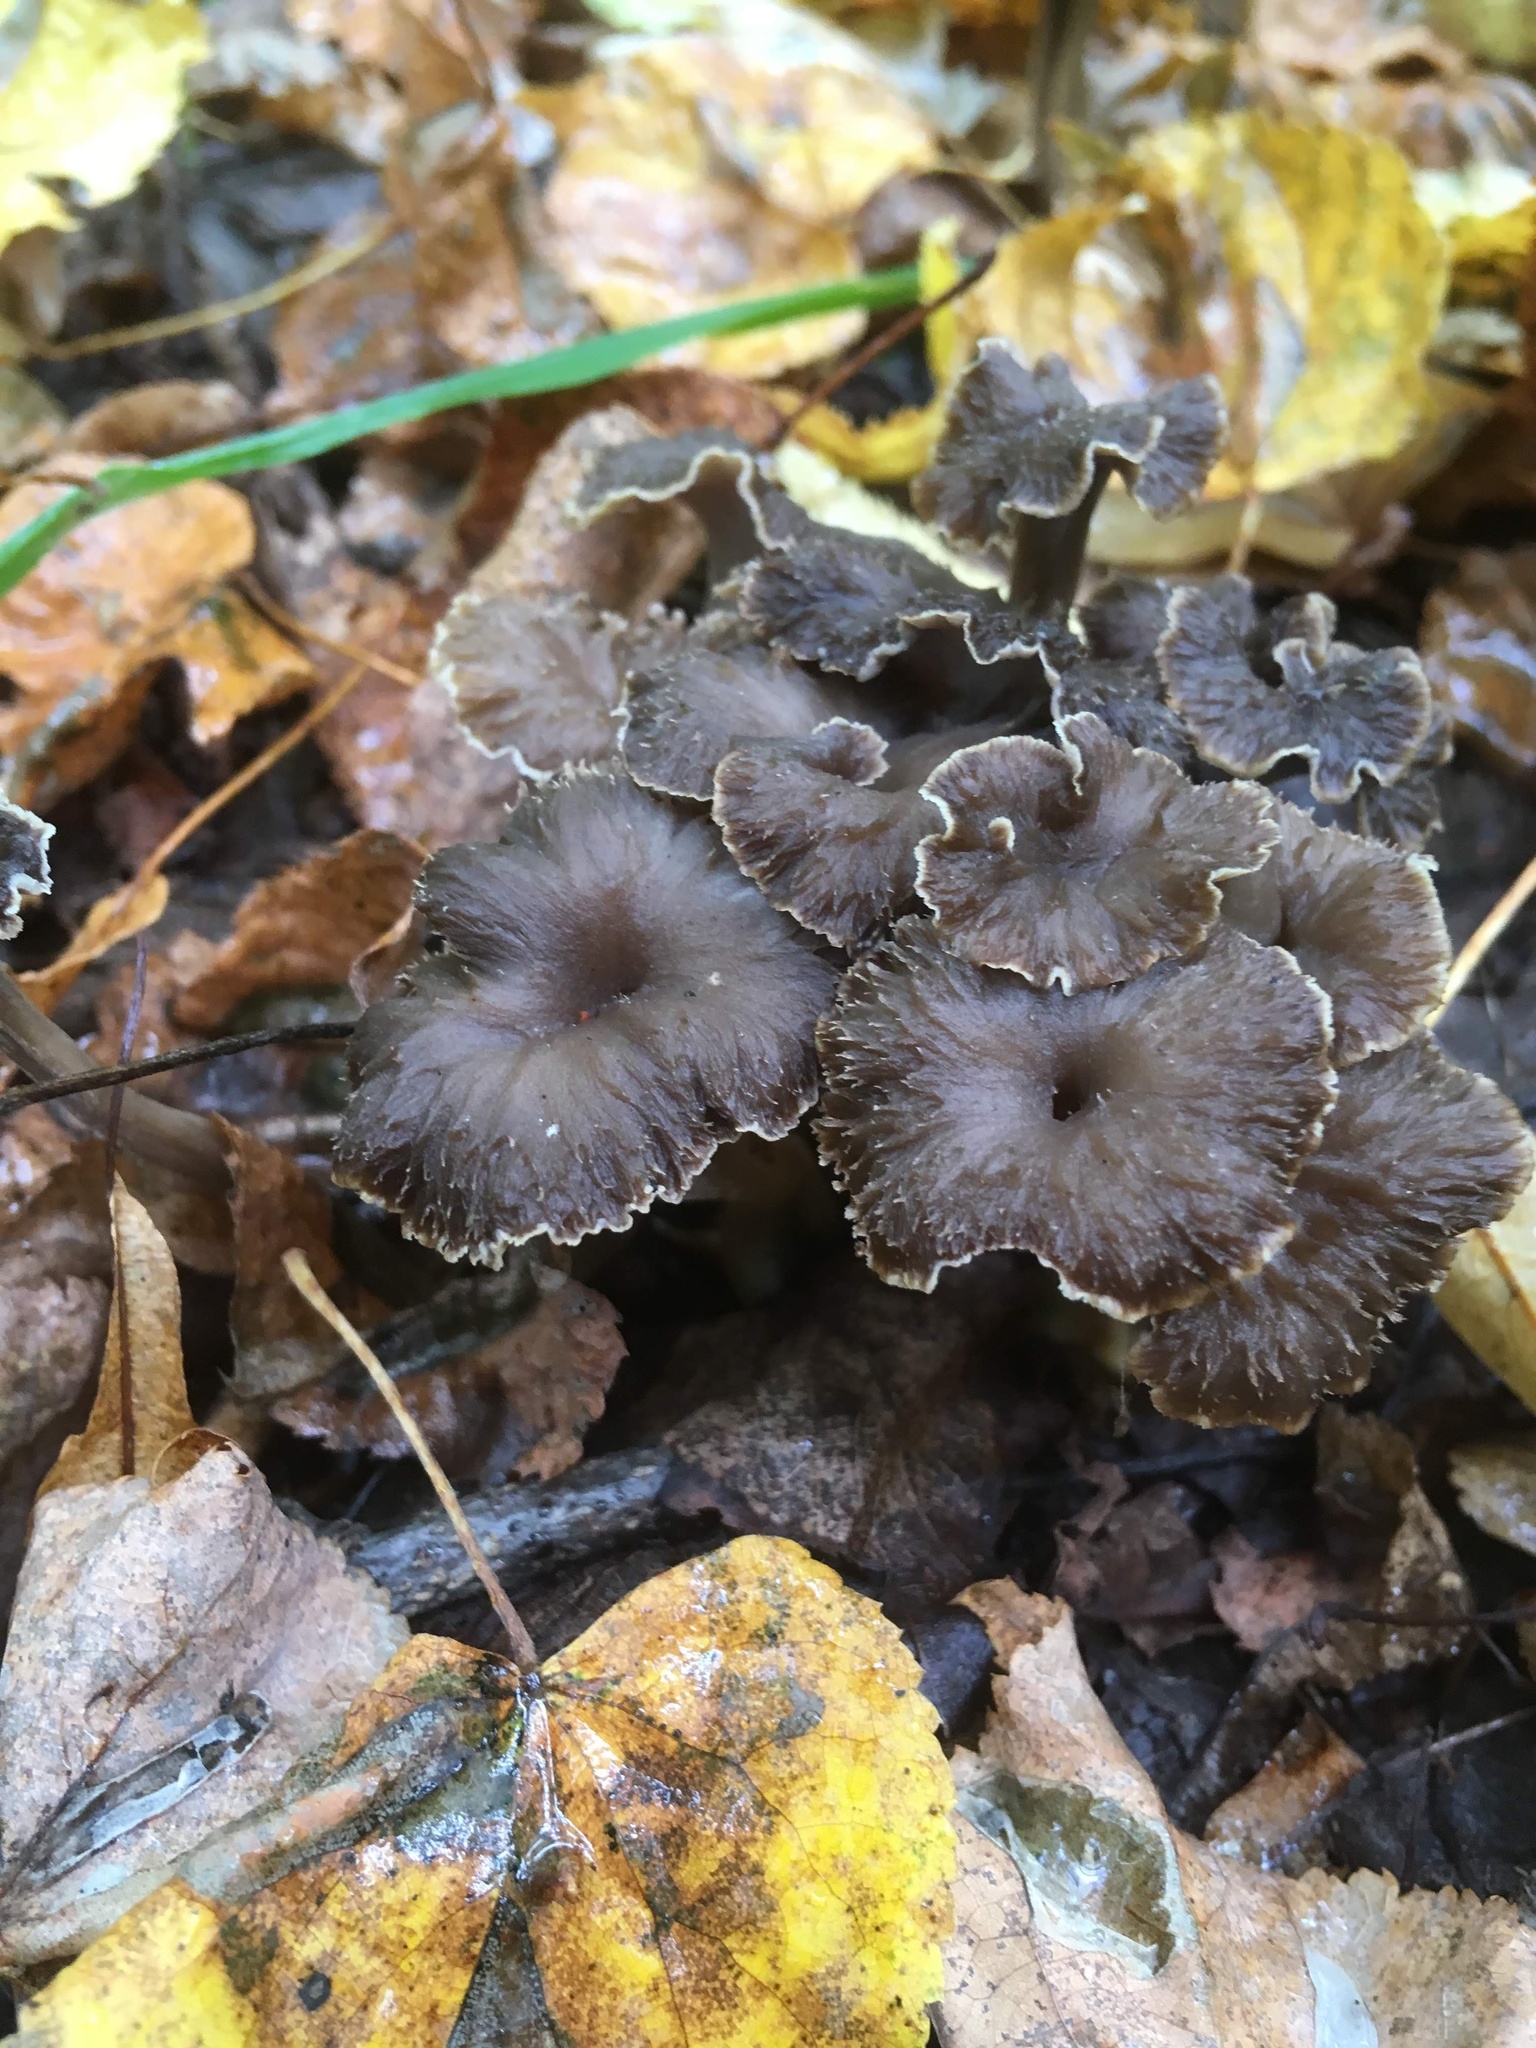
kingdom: Fungi
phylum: Basidiomycota
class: Agaricomycetes
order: Cantharellales
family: Hydnaceae
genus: Craterellus
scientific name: Craterellus undulatus
